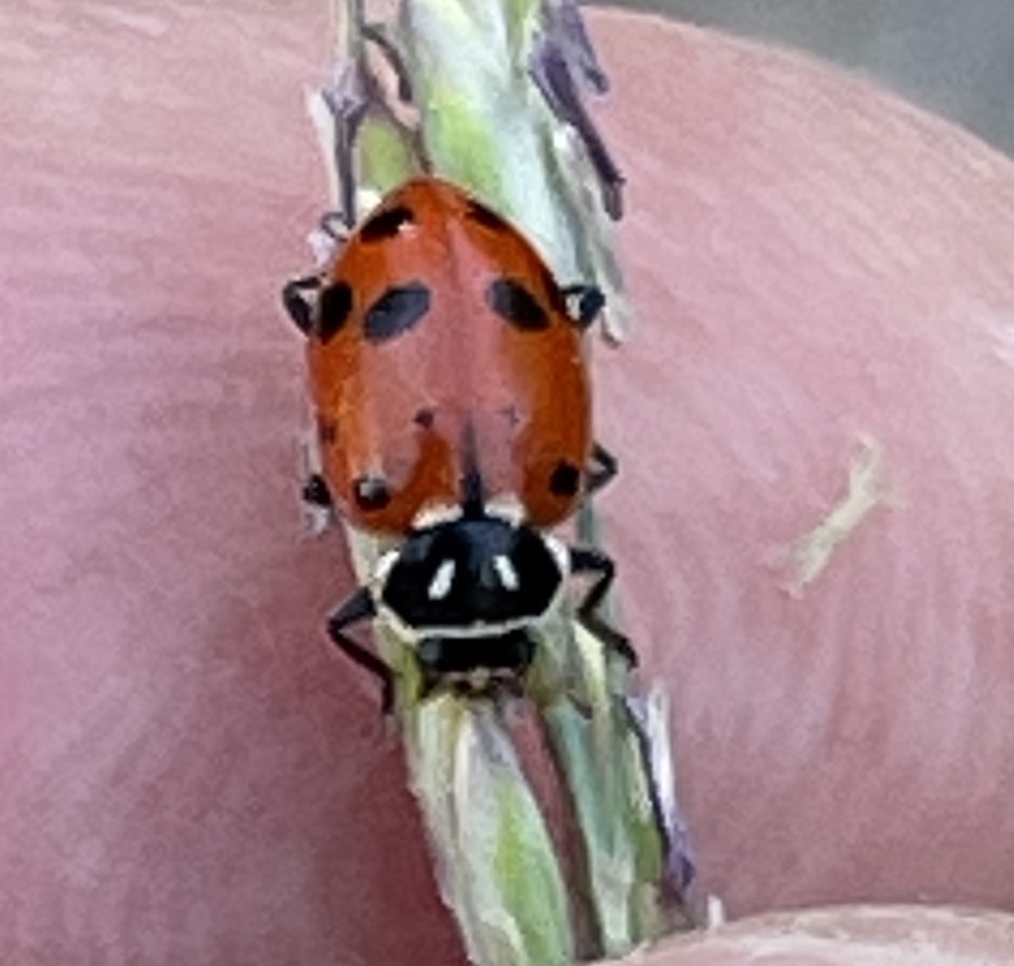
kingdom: Animalia
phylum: Arthropoda
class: Insecta
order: Coleoptera
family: Coccinellidae
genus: Hippodamia
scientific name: Hippodamia convergens
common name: Convergent lady beetle
